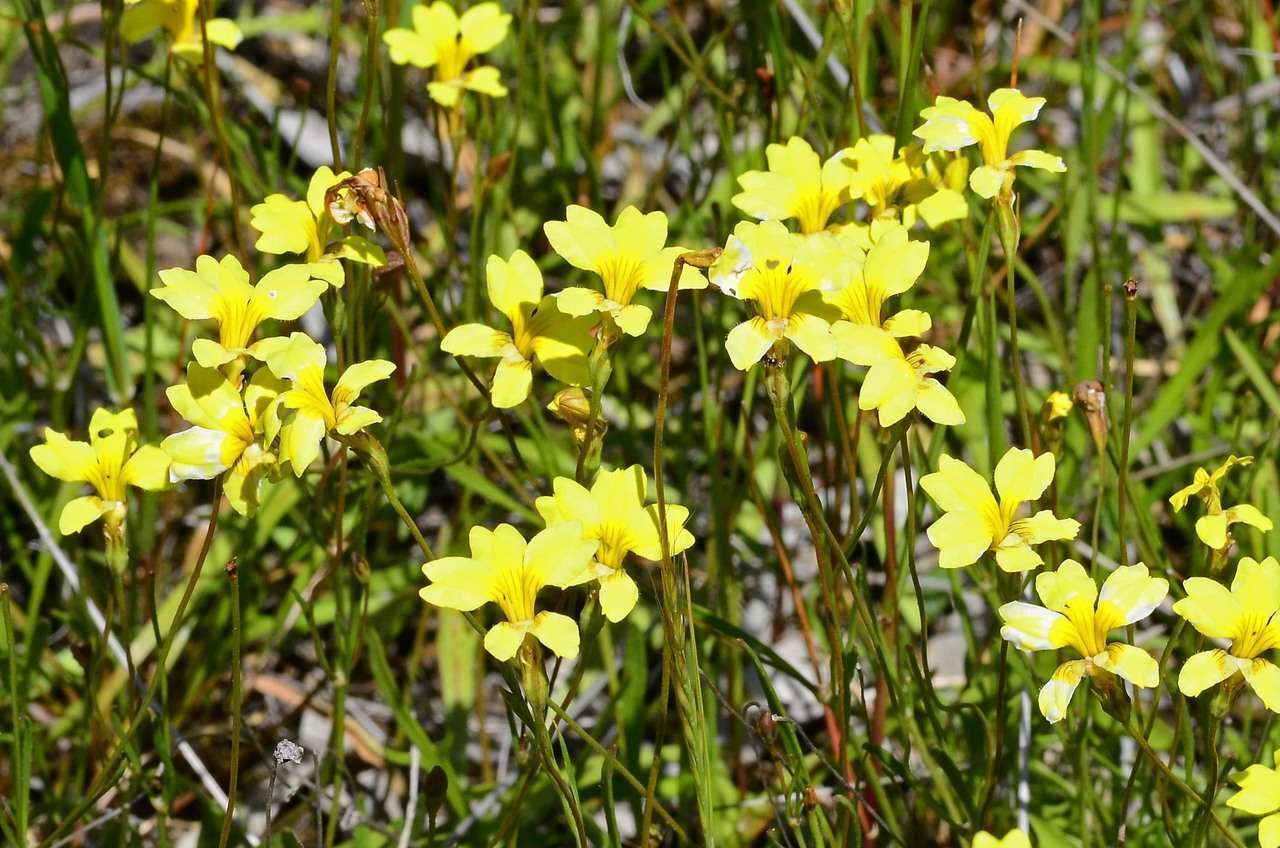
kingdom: Plantae
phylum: Tracheophyta
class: Magnoliopsida
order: Asterales
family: Goodeniaceae
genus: Goodenia
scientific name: Goodenia pinnatifida
